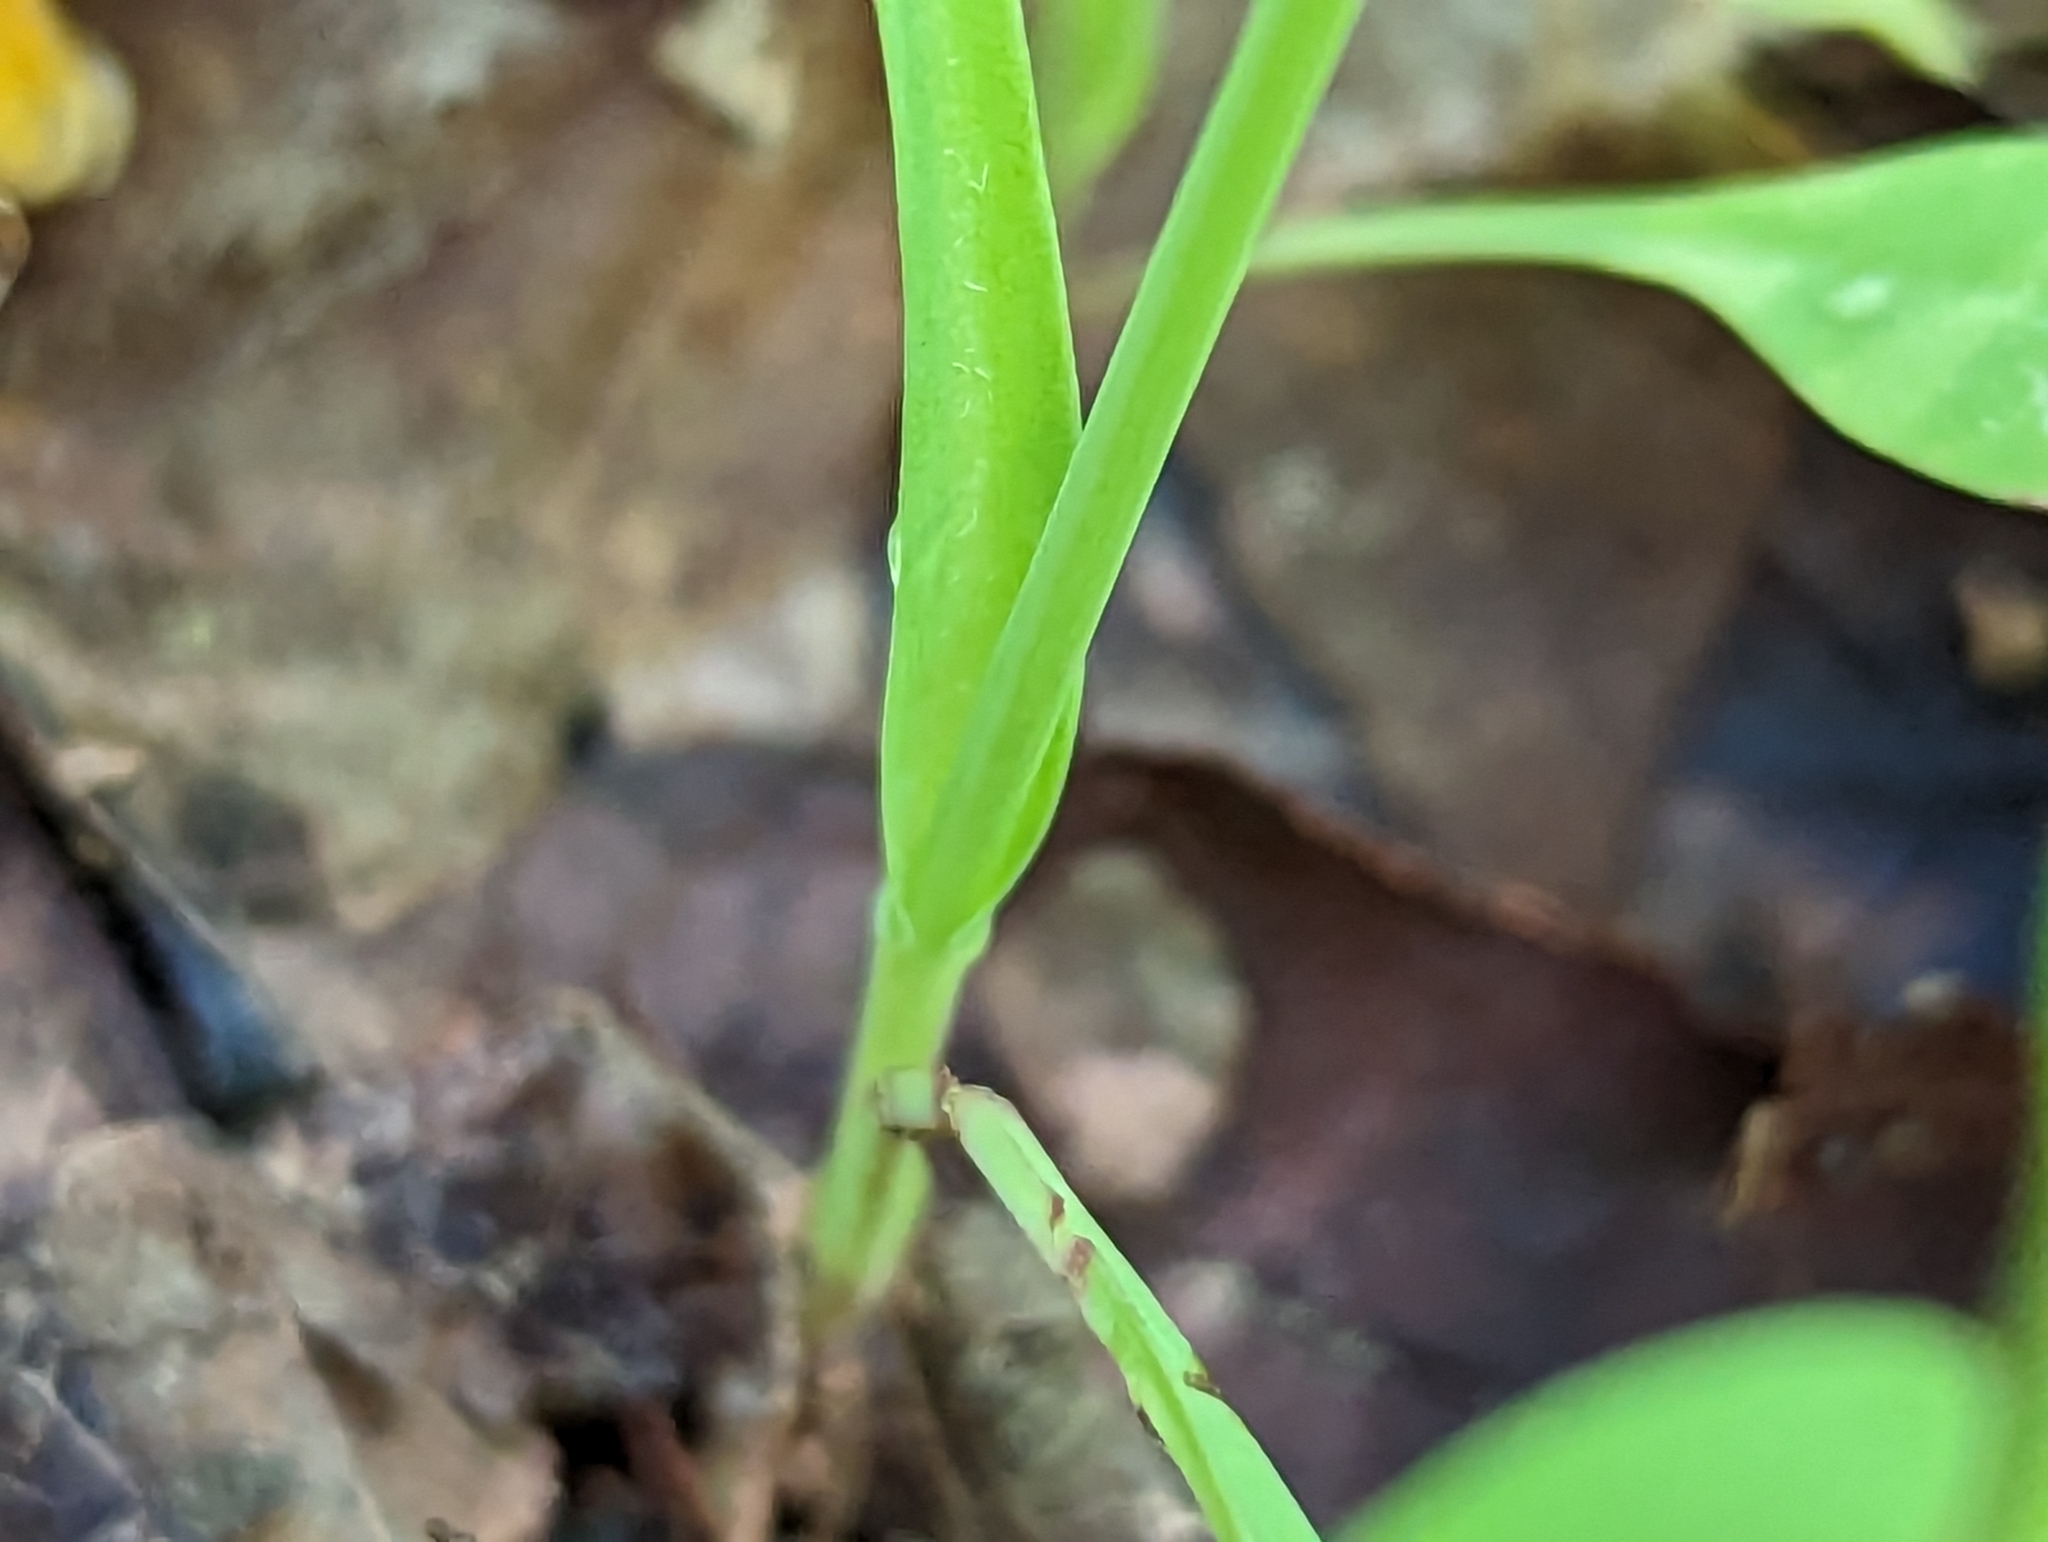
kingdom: Plantae
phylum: Tracheophyta
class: Magnoliopsida
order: Asterales
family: Asteraceae
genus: Krigia
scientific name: Krigia cespitosa
